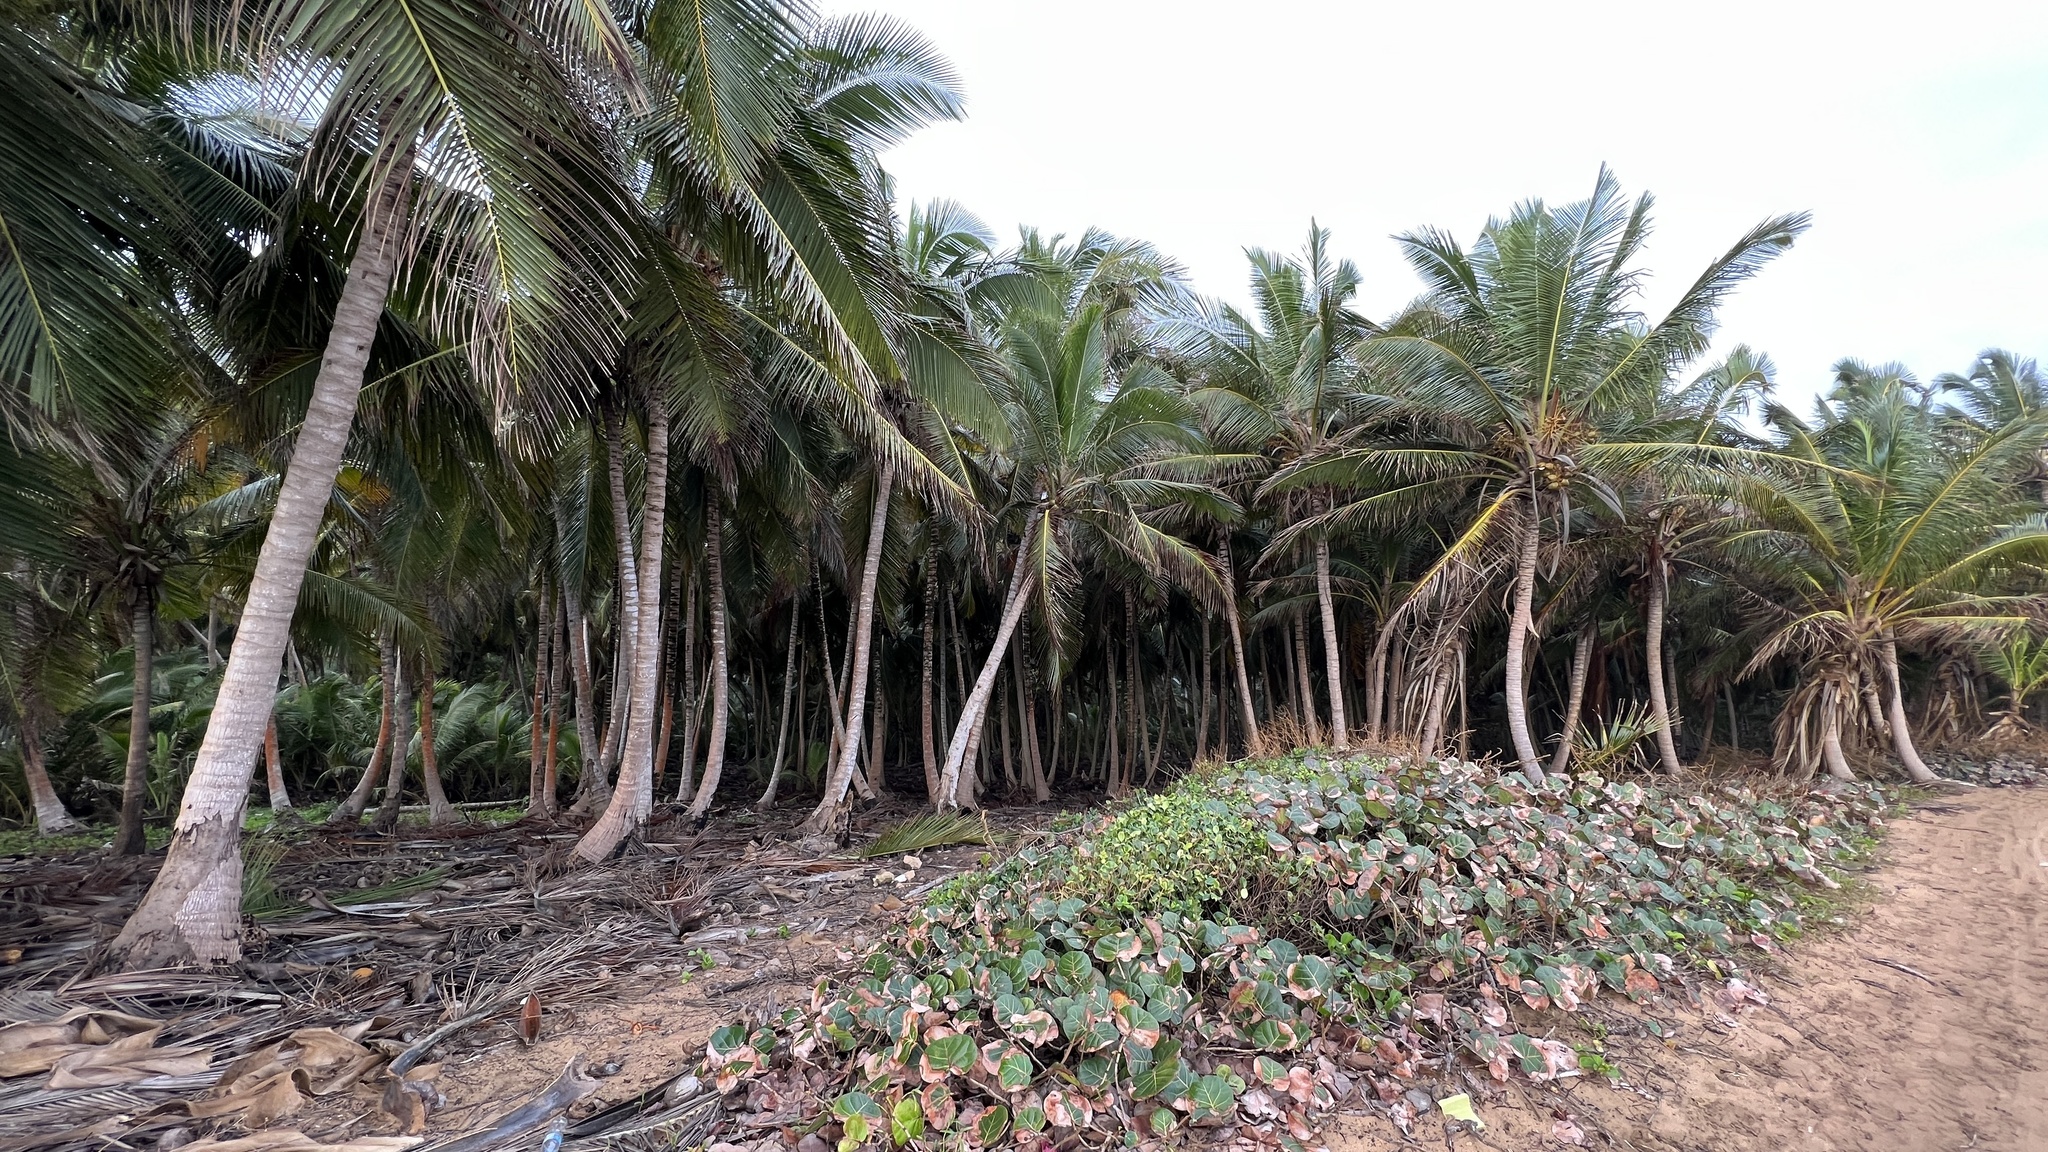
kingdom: Plantae
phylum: Tracheophyta
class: Liliopsida
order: Arecales
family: Arecaceae
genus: Cocos
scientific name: Cocos nucifera
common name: Coconut palm
